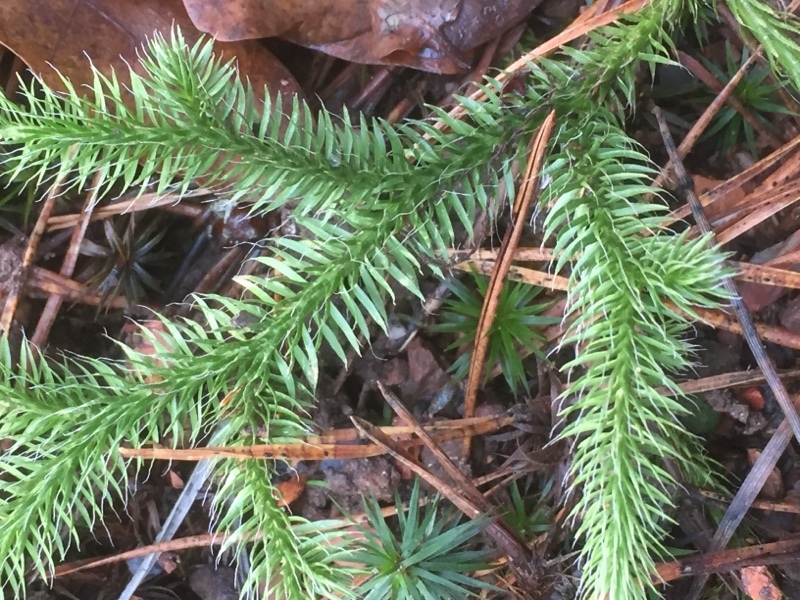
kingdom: Plantae
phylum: Tracheophyta
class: Lycopodiopsida
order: Lycopodiales
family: Lycopodiaceae
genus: Lycopodium
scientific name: Lycopodium clavatum
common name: Stag's-horn clubmoss
